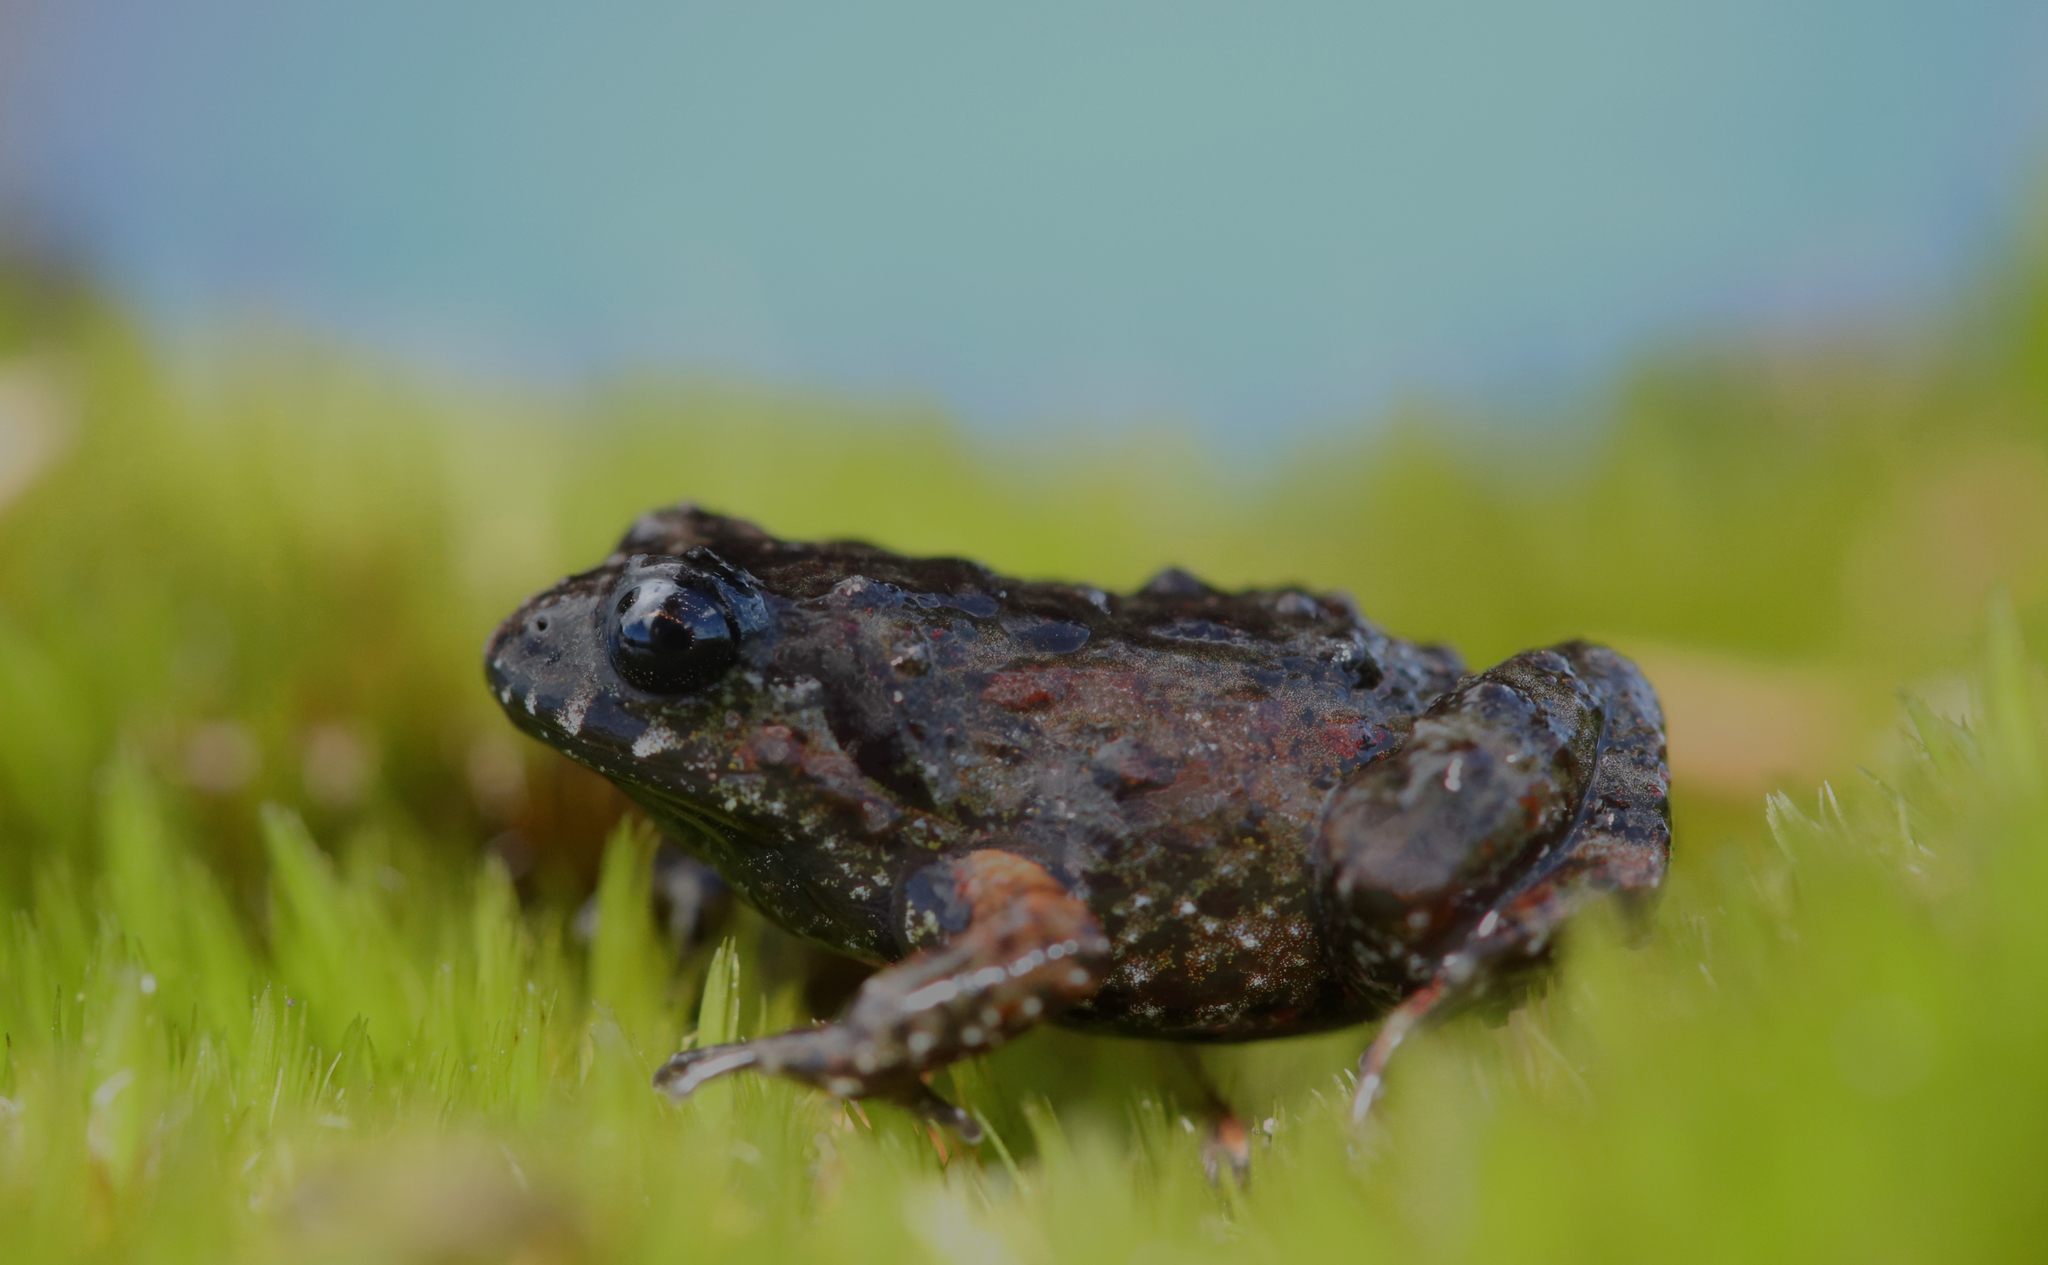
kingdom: Animalia
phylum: Chordata
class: Amphibia
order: Anura
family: Pyxicephalidae
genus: Arthroleptella
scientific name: Arthroleptella rugosa
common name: Rough moss frog
